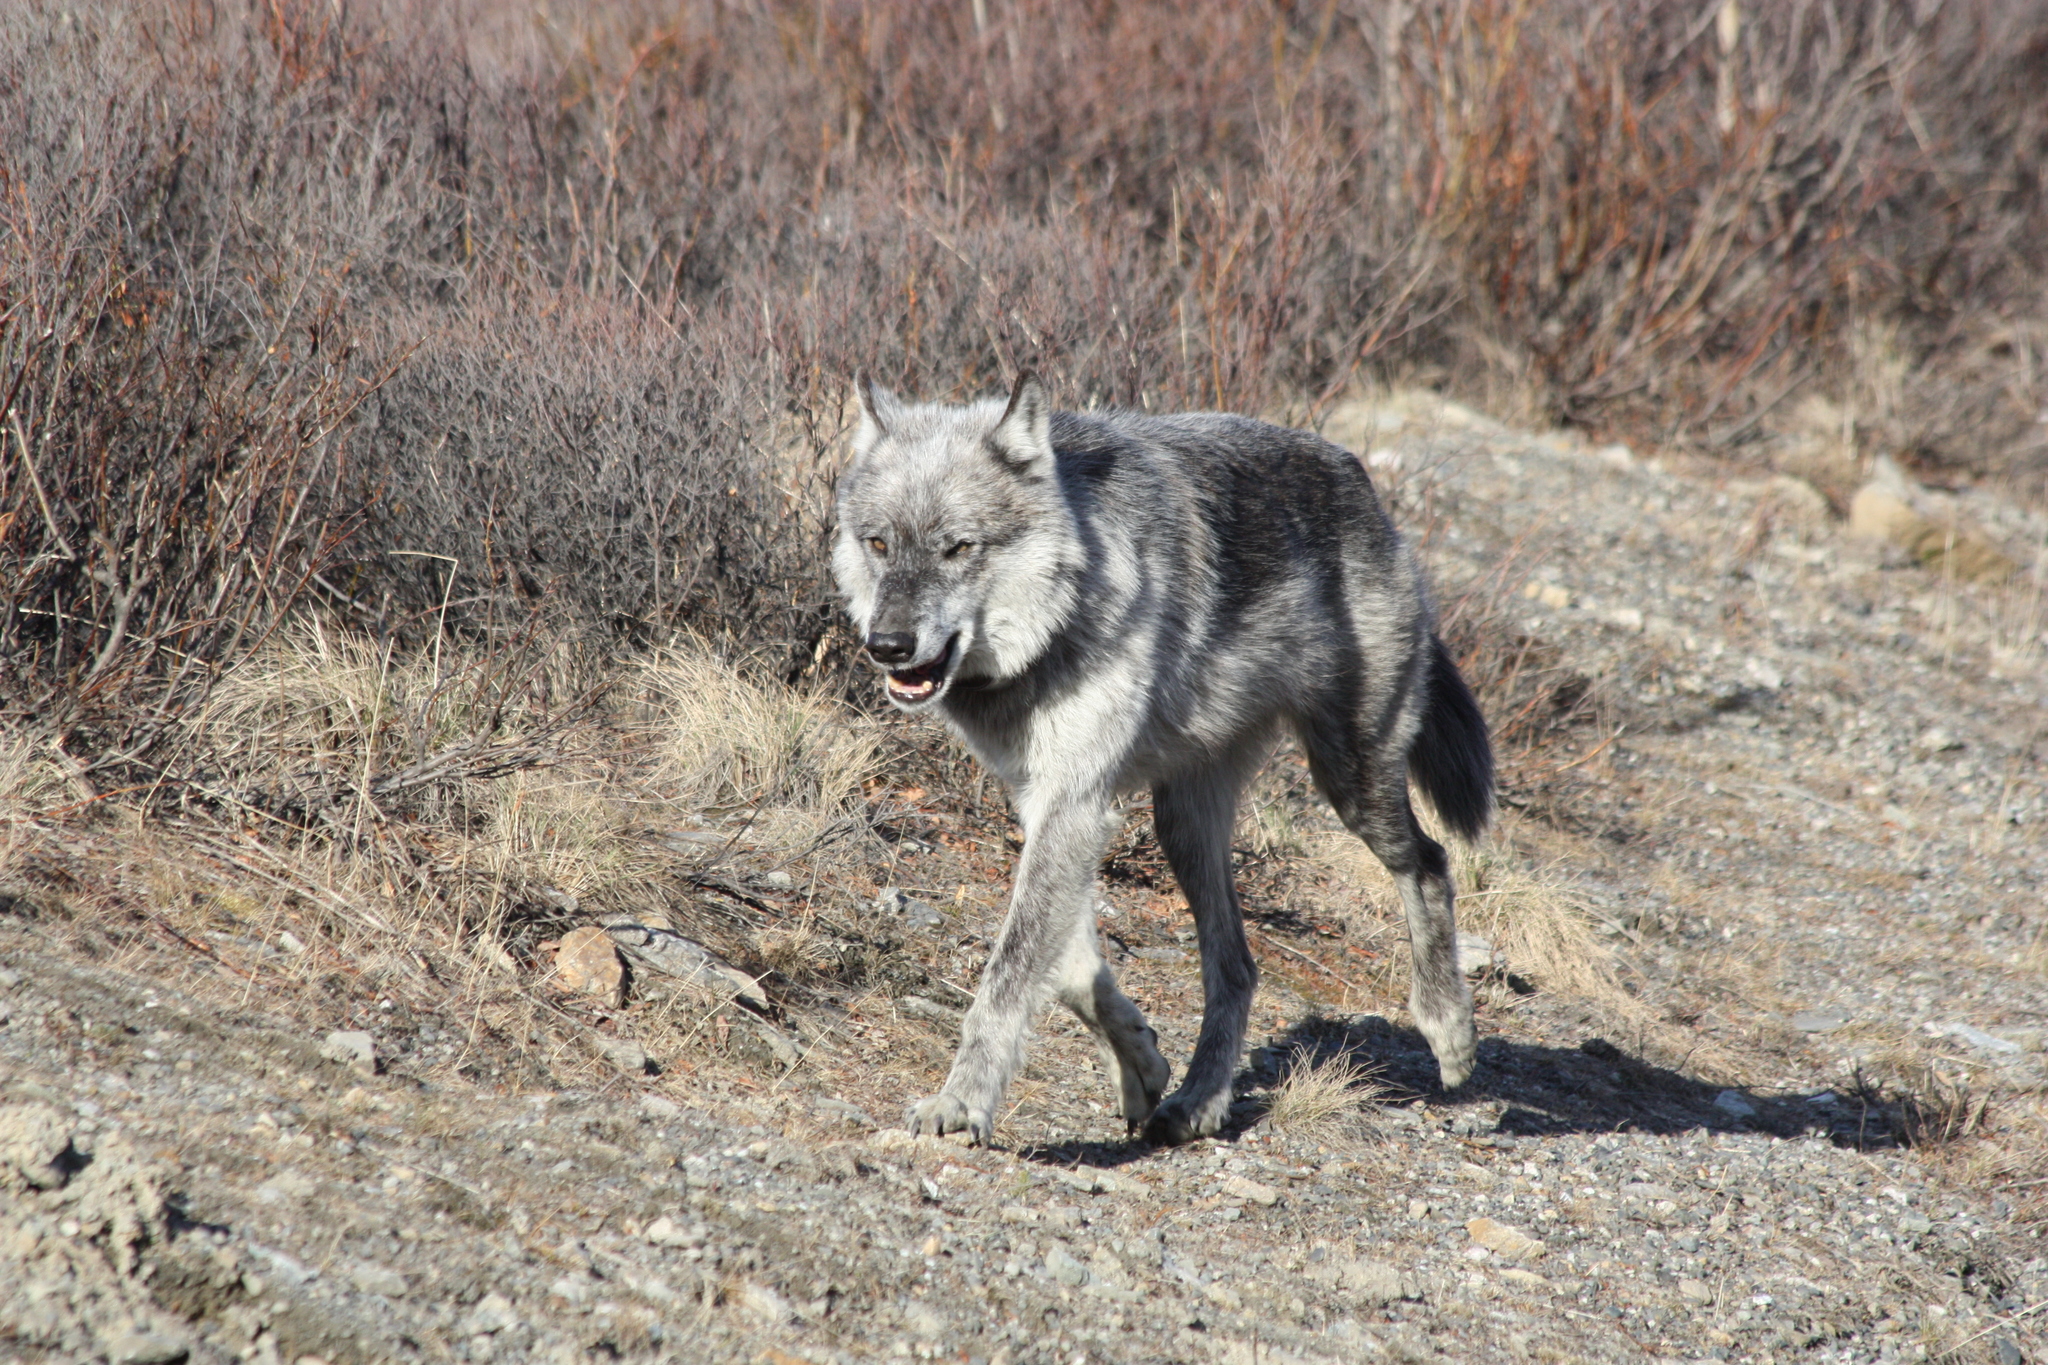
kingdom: Animalia
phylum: Chordata
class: Mammalia
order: Carnivora
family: Canidae
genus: Canis
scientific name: Canis lupus
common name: Gray wolf
